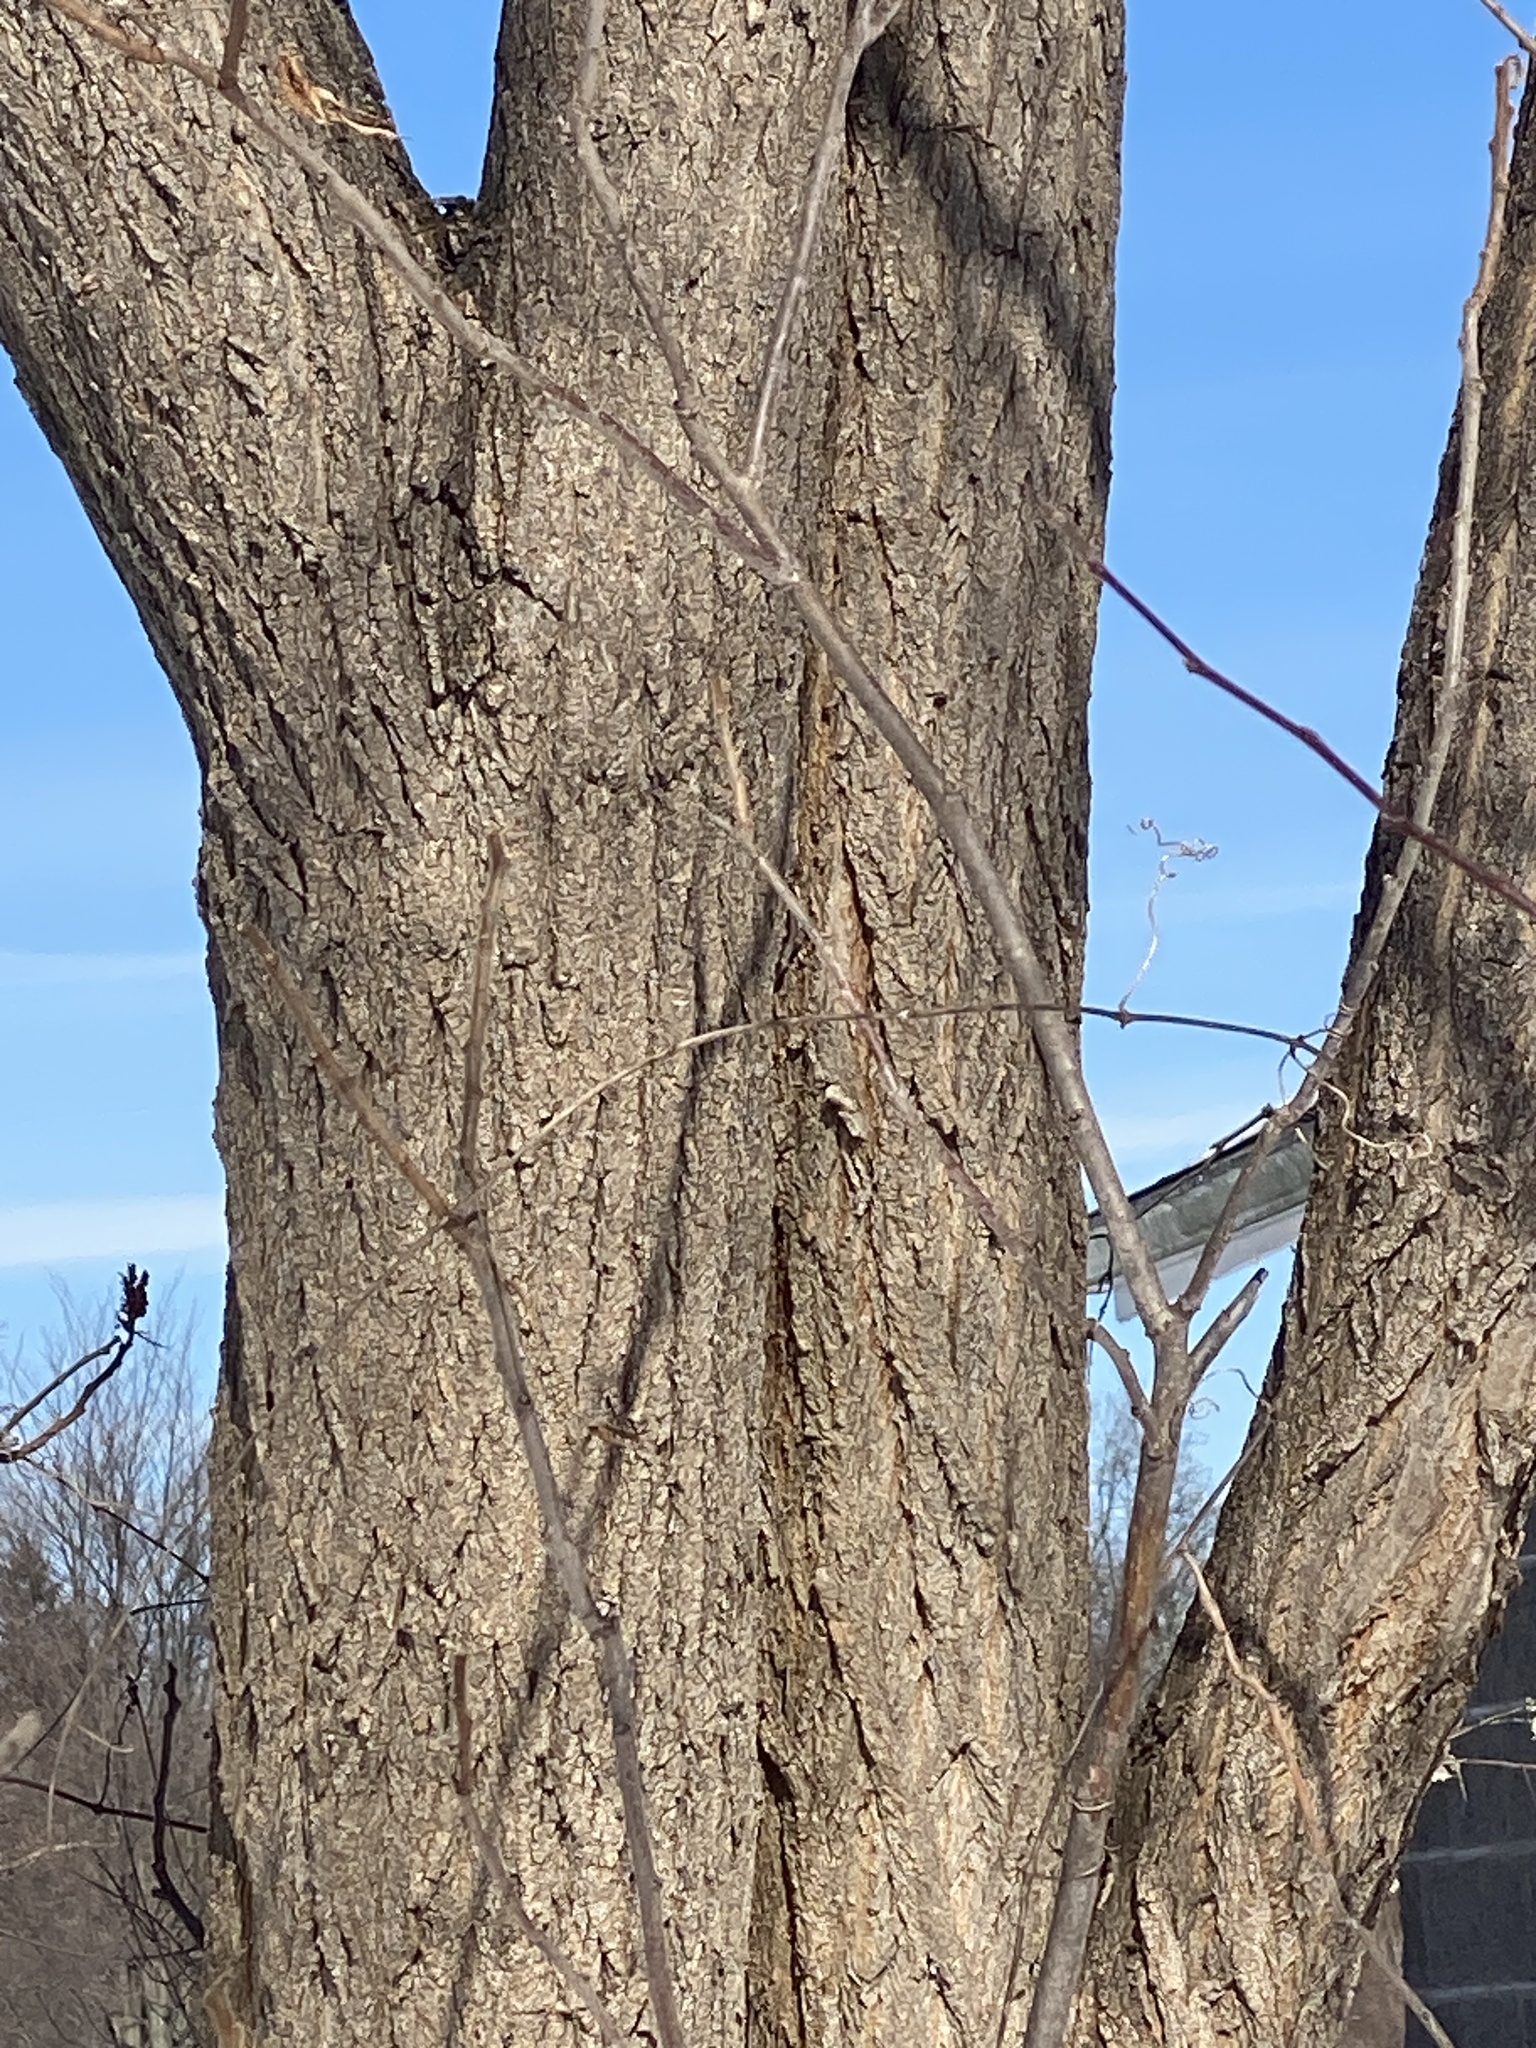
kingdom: Plantae
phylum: Tracheophyta
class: Magnoliopsida
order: Fabales
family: Fabaceae
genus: Robinia
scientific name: Robinia pseudoacacia
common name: Black locust
